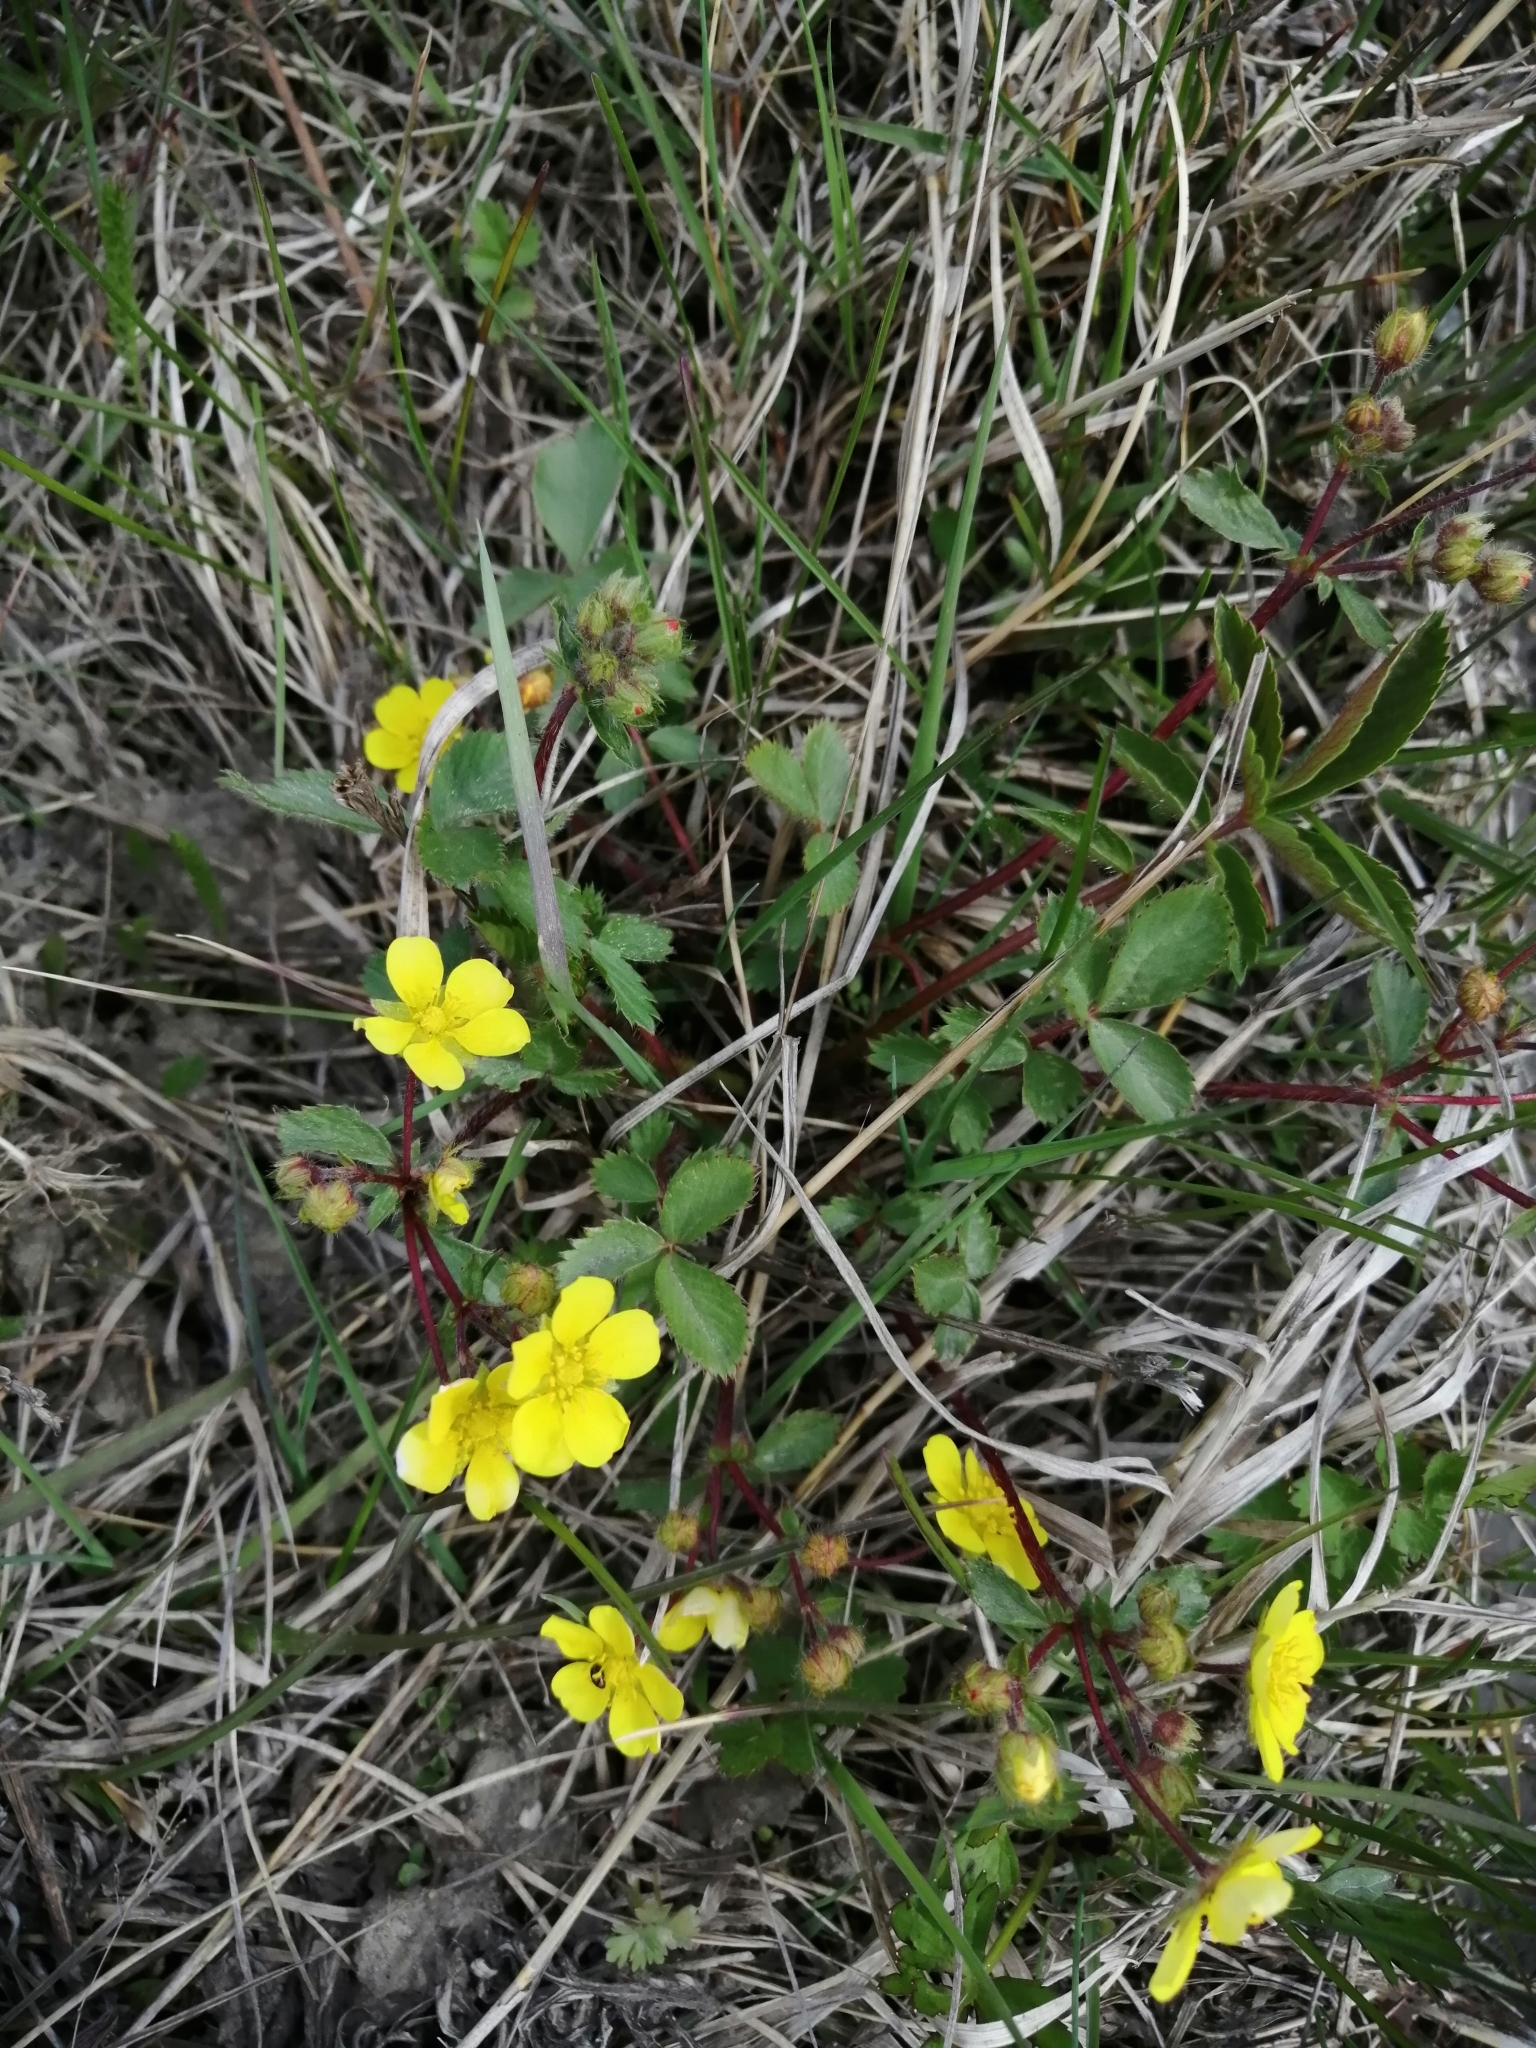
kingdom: Plantae
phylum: Tracheophyta
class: Magnoliopsida
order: Rosales
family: Rosaceae
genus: Potentilla
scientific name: Potentilla fragarioides
